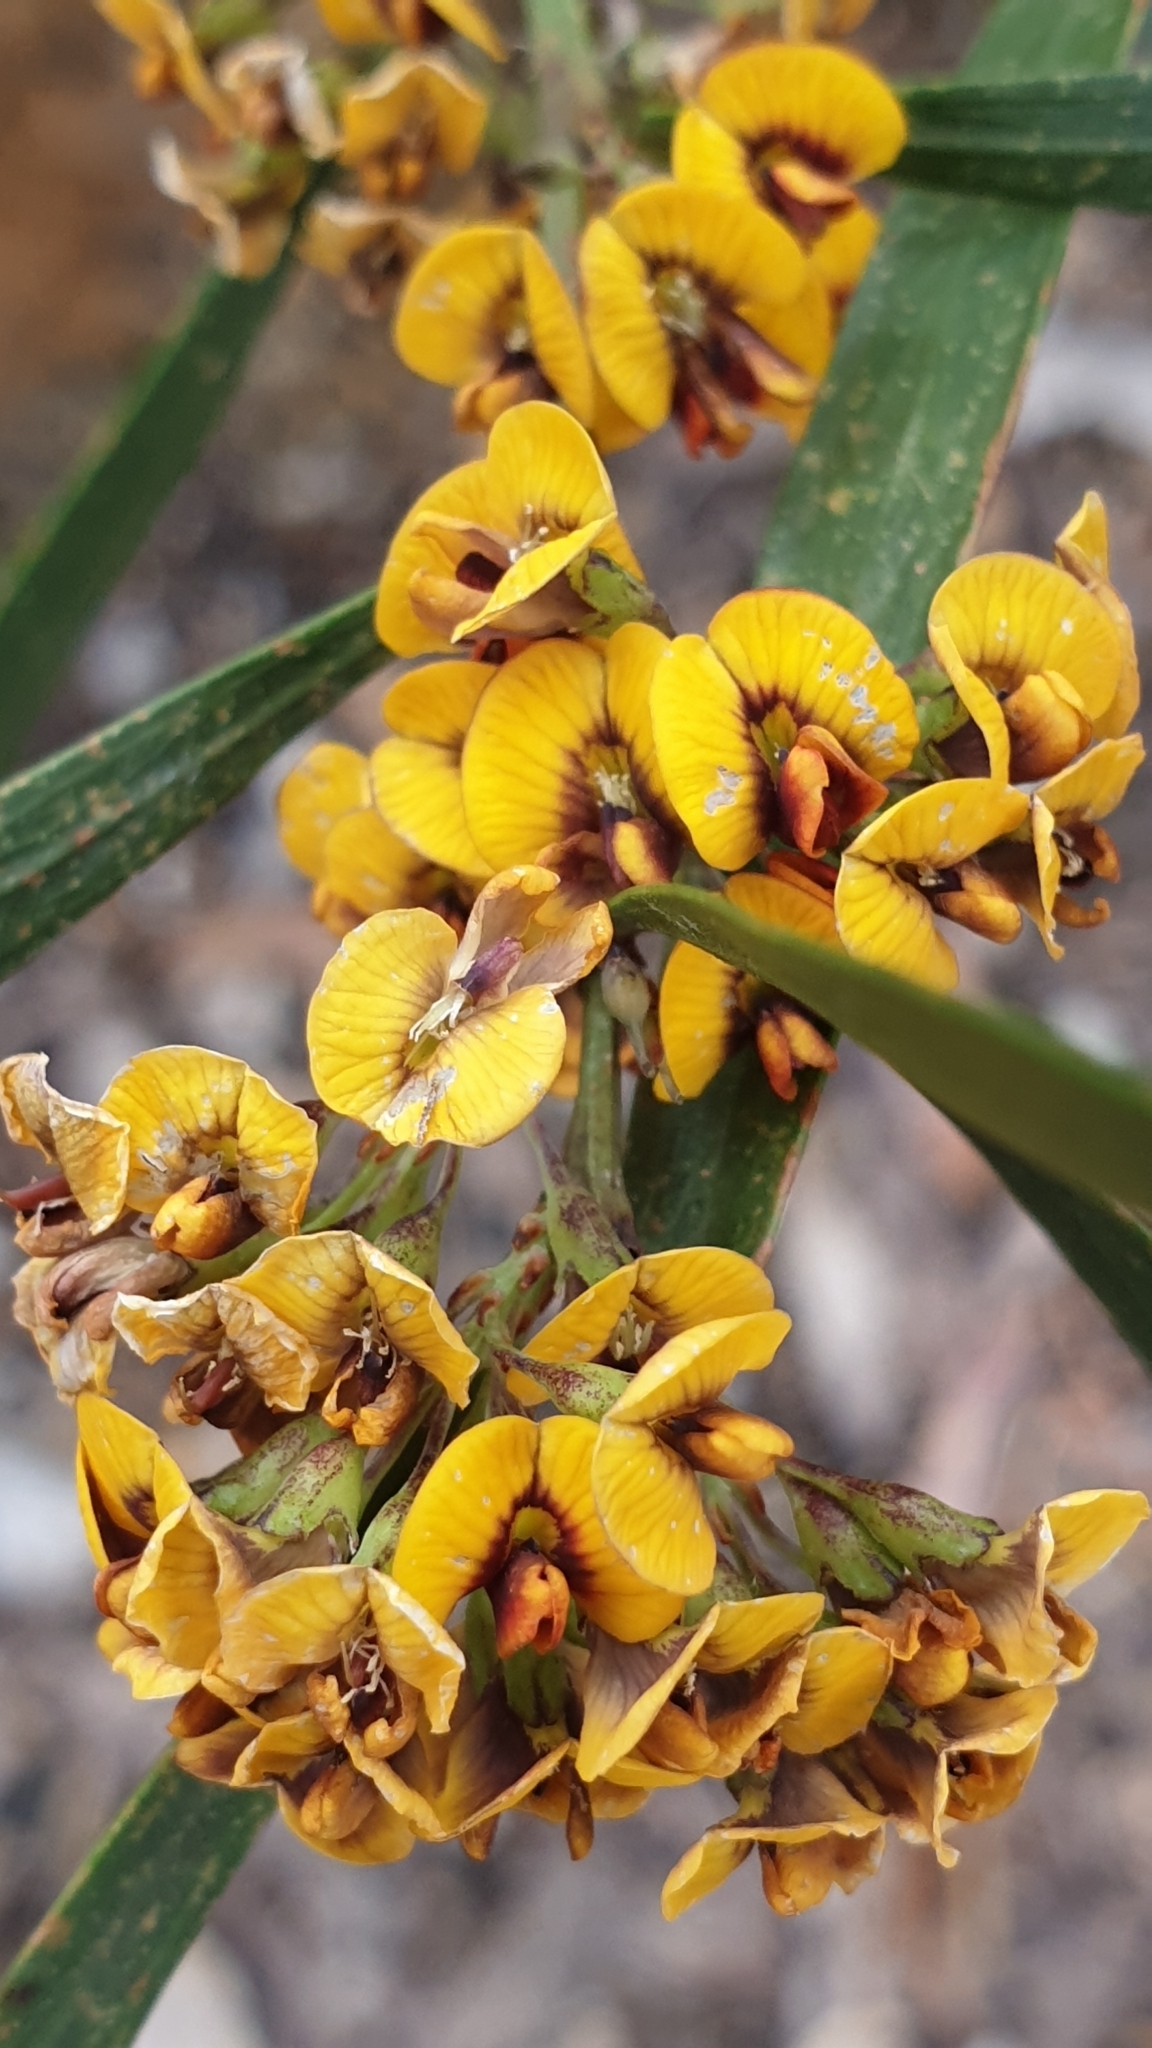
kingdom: Plantae
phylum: Tracheophyta
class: Magnoliopsida
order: Fabales
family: Fabaceae
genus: Daviesia
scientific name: Daviesia leptophylla
